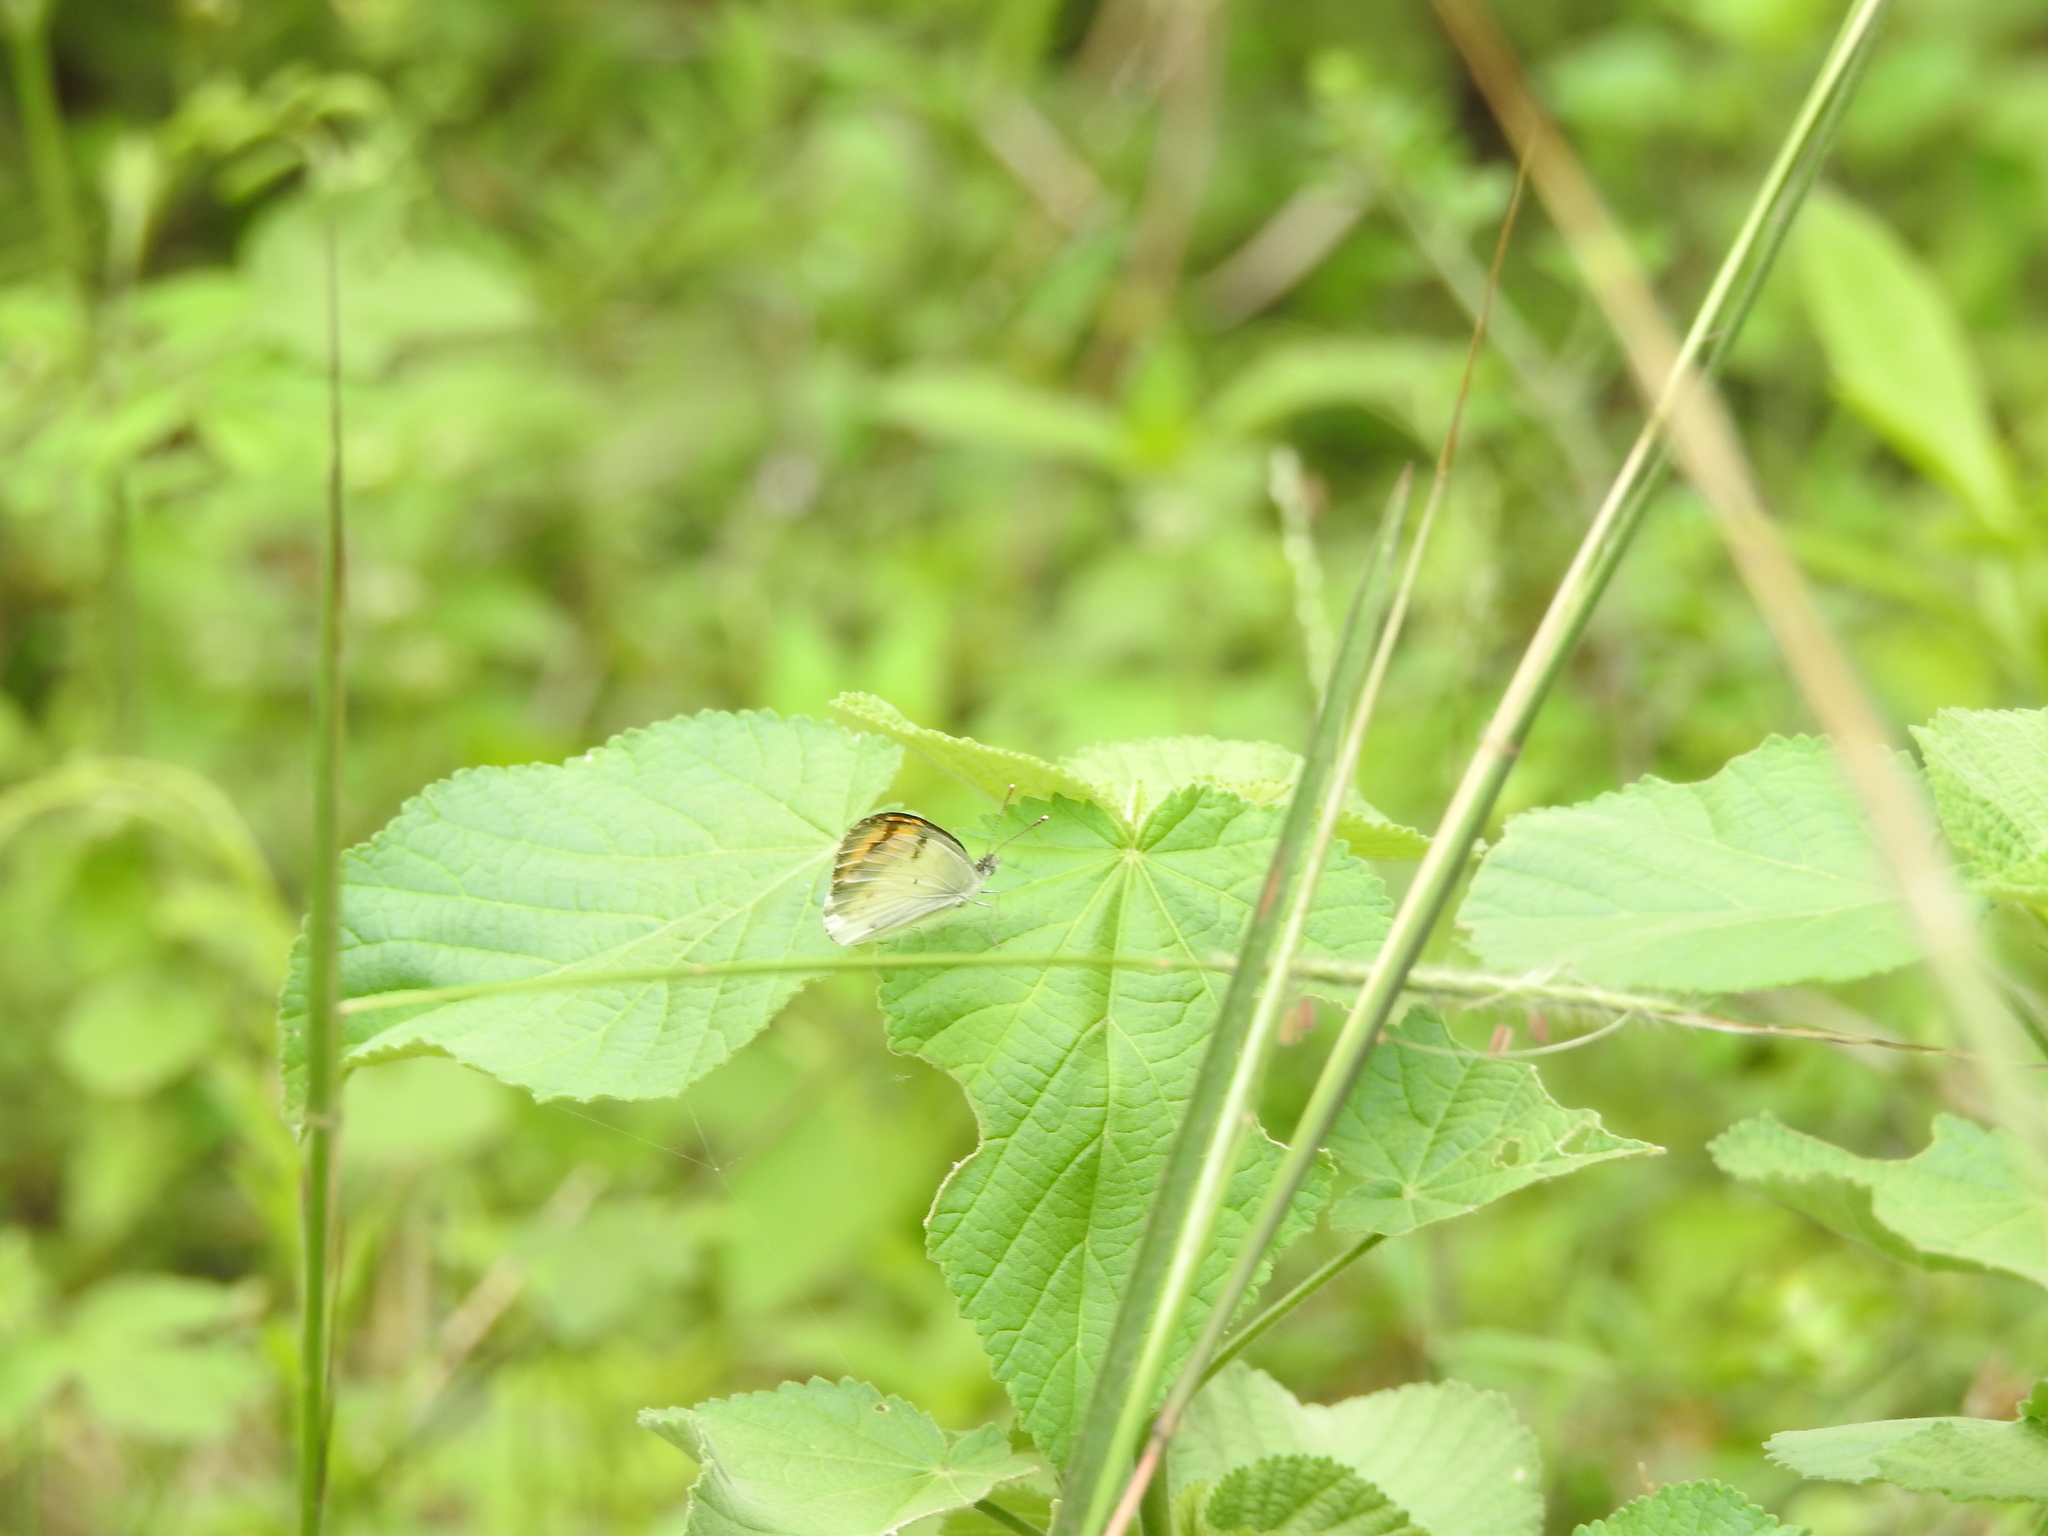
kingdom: Animalia
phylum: Arthropoda
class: Insecta
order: Lepidoptera
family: Pieridae
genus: Colotis
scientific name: Colotis aurora
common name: Plain orange-tip
